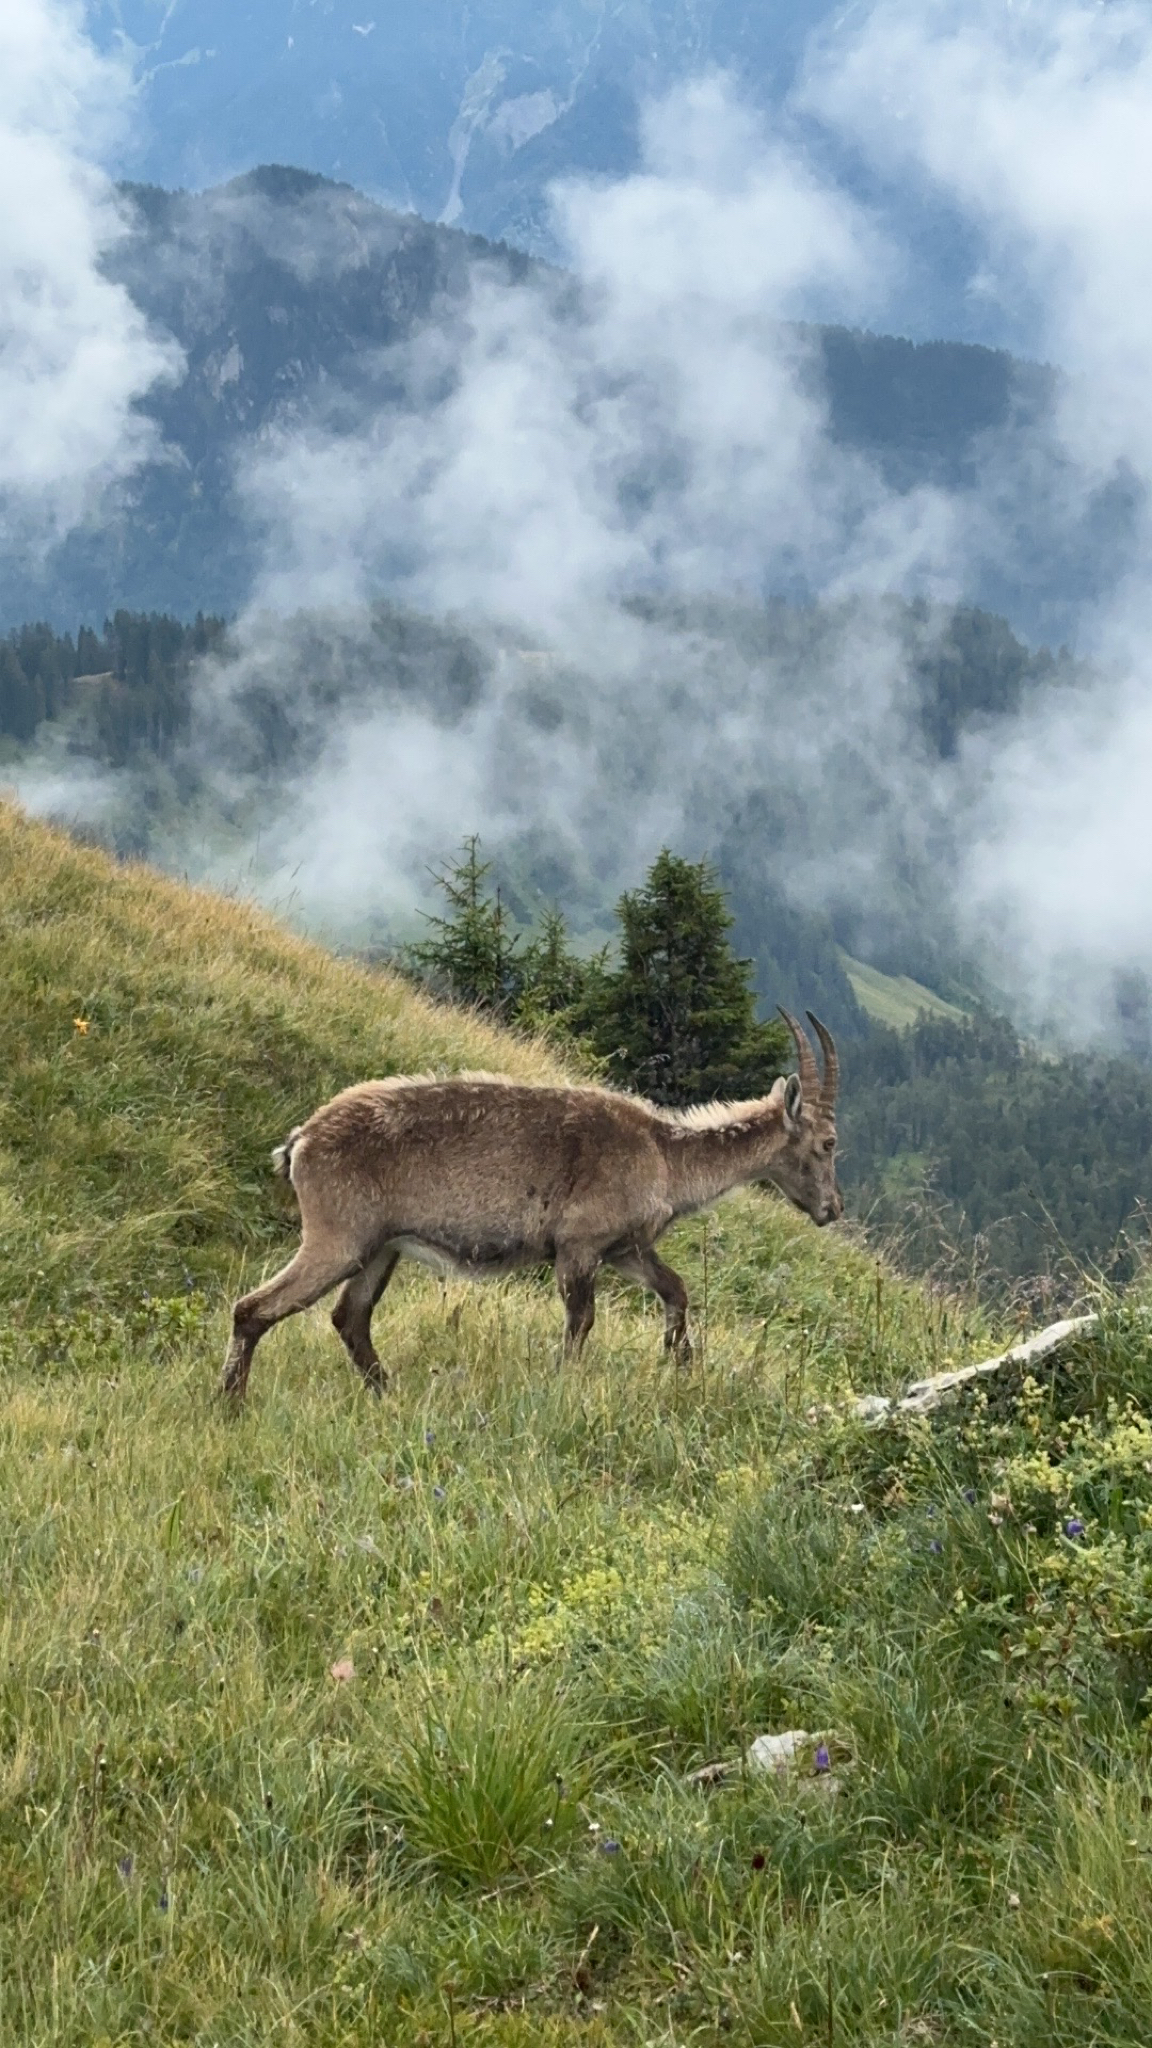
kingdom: Animalia
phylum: Chordata
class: Mammalia
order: Artiodactyla
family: Bovidae
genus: Capra
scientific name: Capra ibex
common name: Alpine ibex
